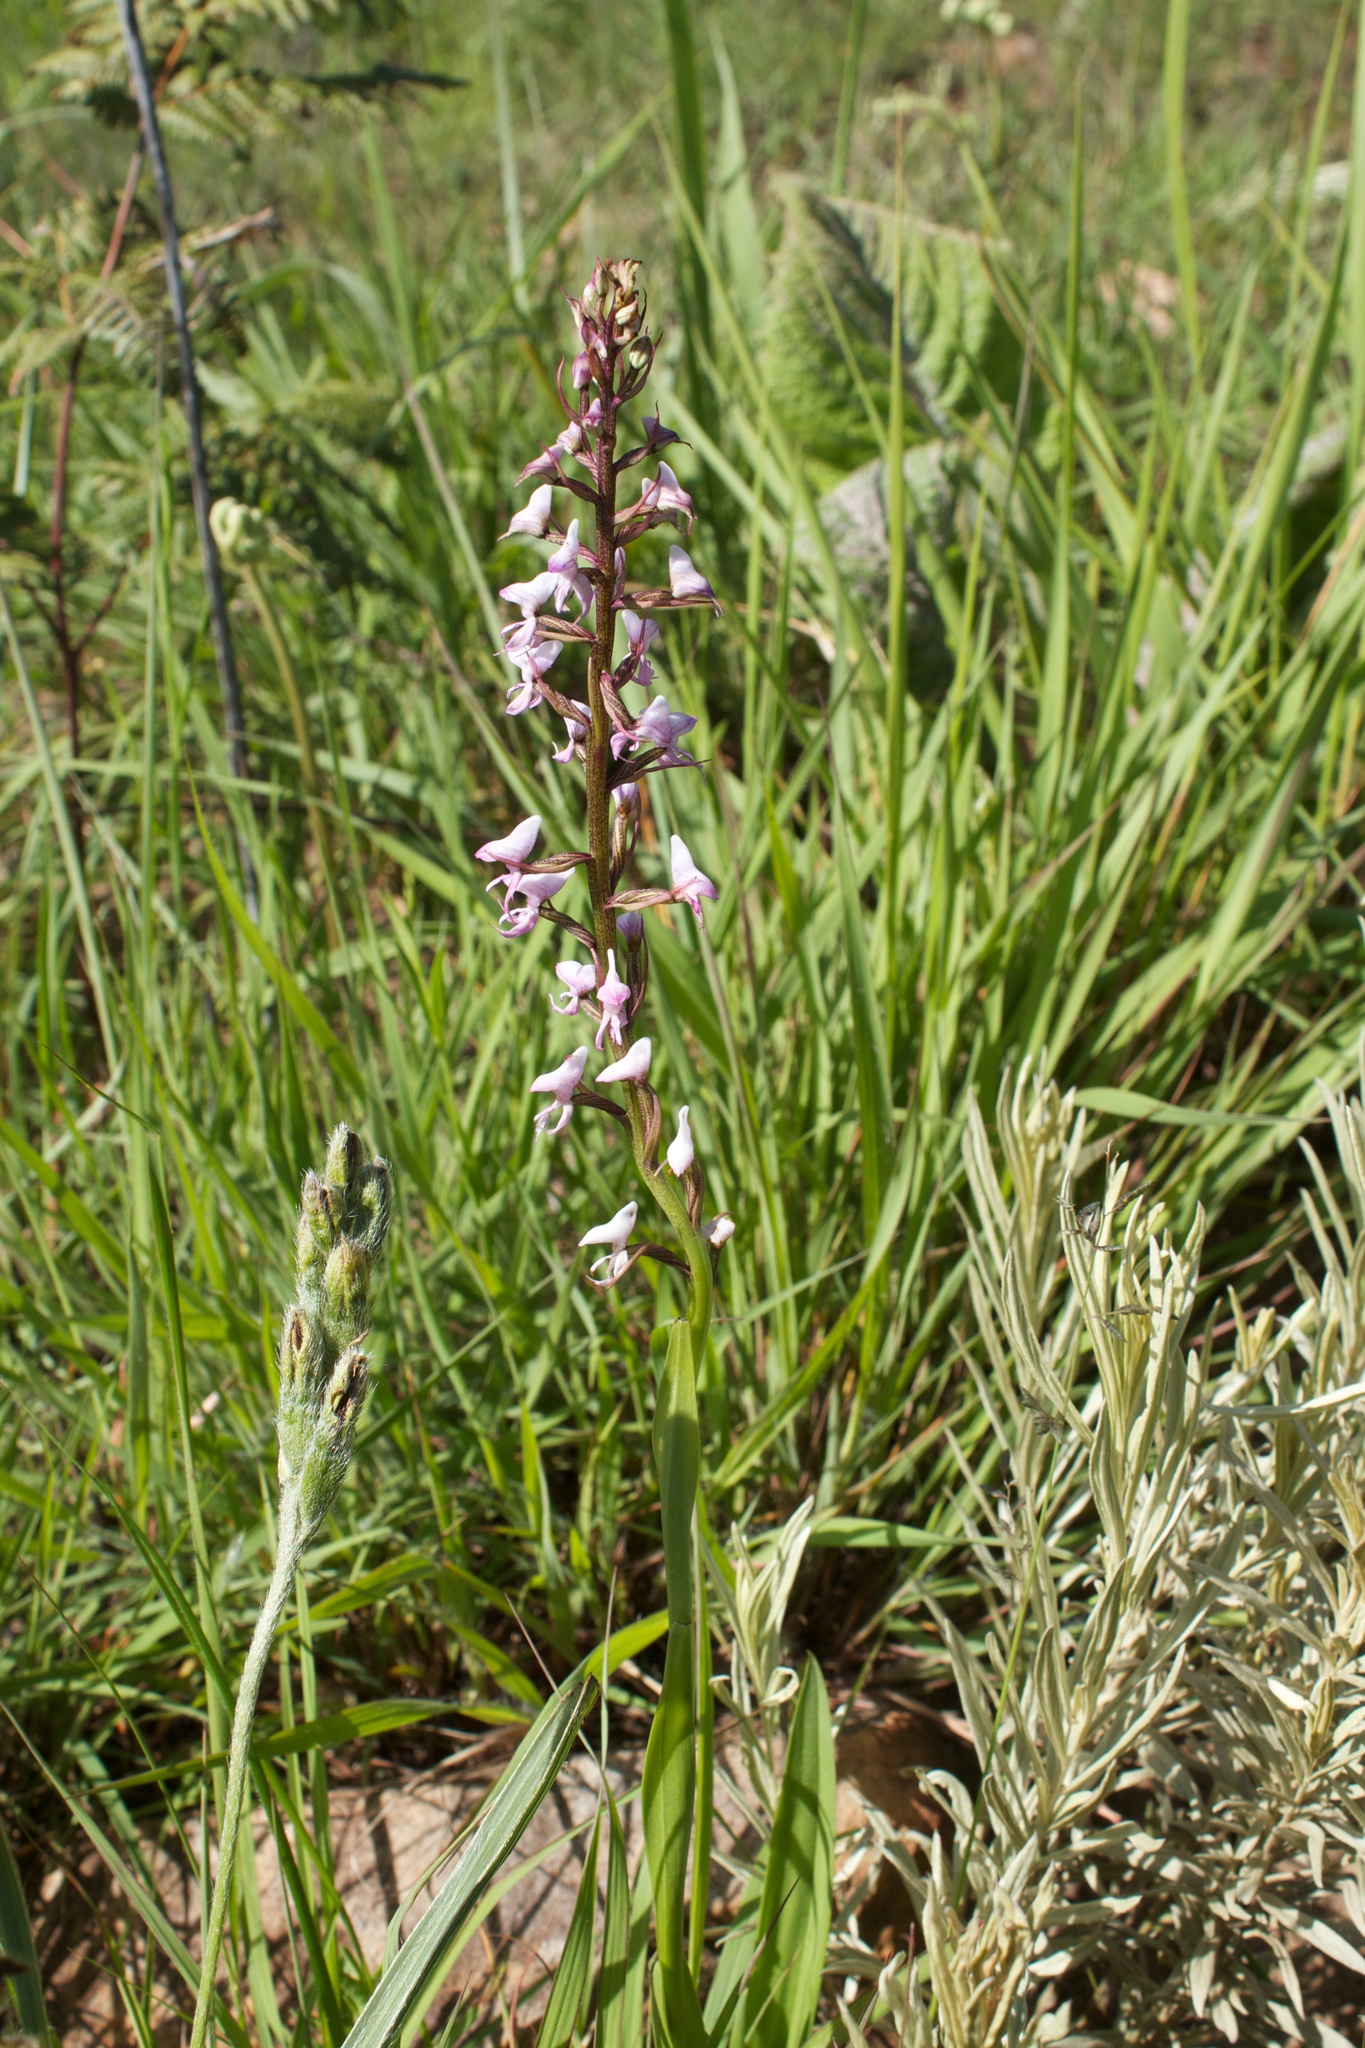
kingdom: Plantae
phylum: Tracheophyta
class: Liliopsida
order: Asparagales
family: Orchidaceae
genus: Disa
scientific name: Disa aconitoides
